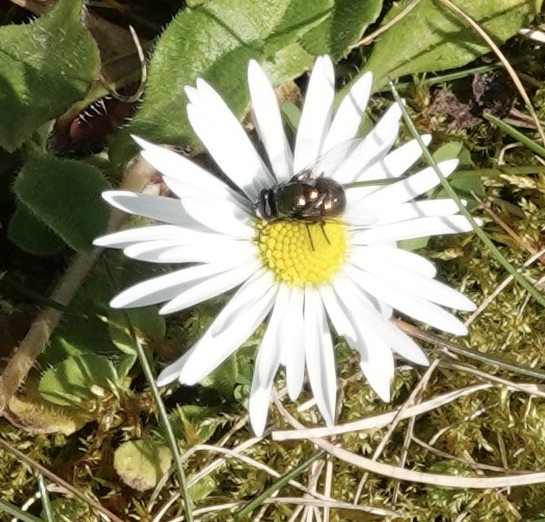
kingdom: Animalia
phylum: Arthropoda
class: Insecta
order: Diptera
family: Muscidae
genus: Neomyia
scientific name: Neomyia
